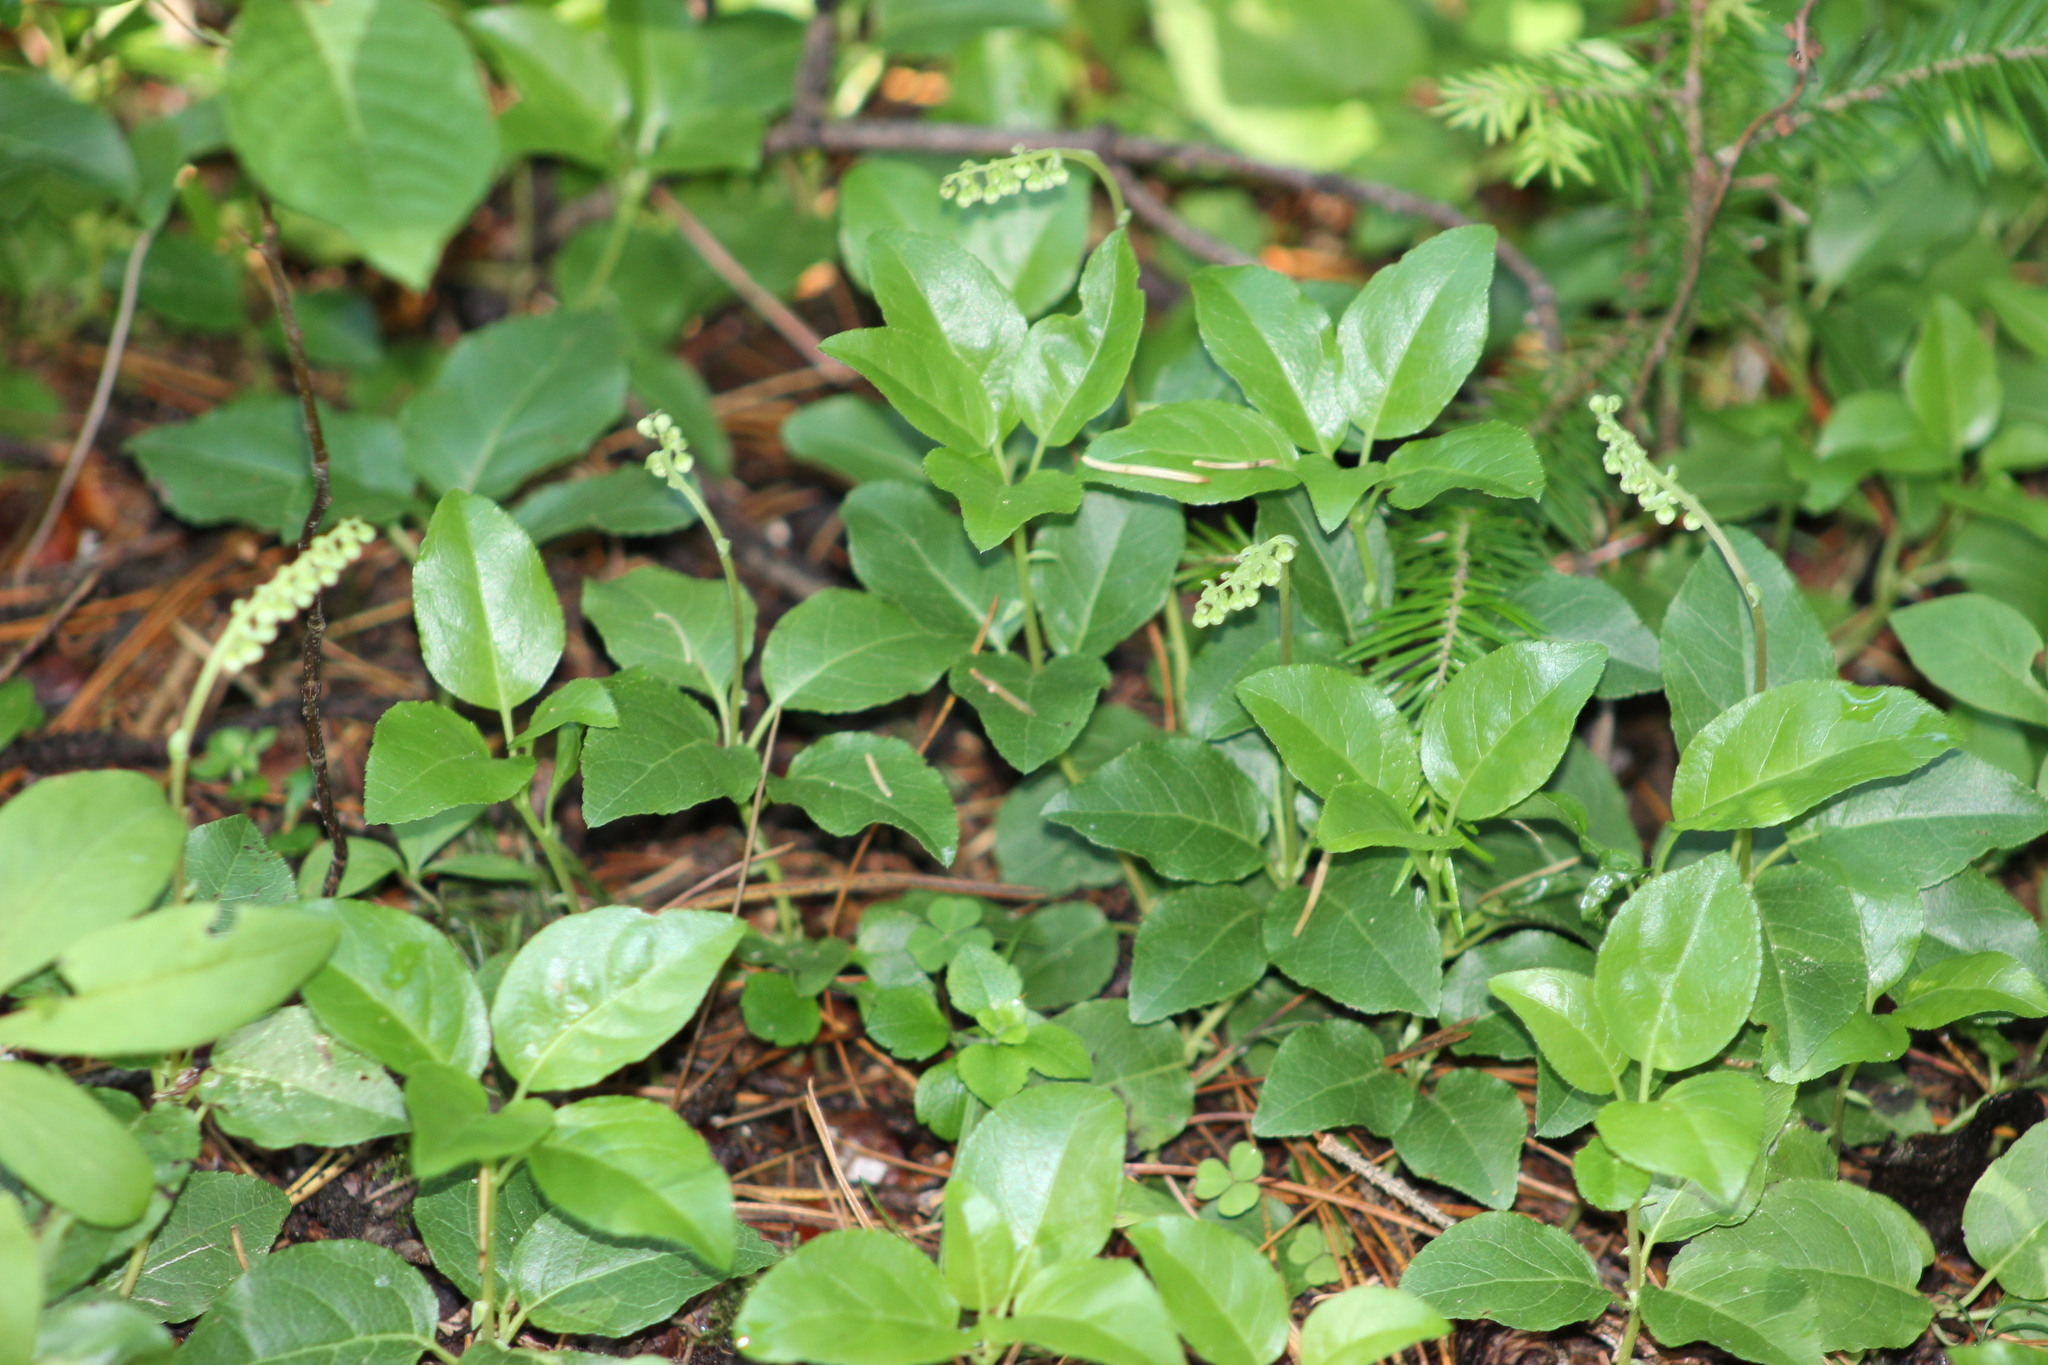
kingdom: Plantae
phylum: Tracheophyta
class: Magnoliopsida
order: Ericales
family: Ericaceae
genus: Orthilia
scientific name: Orthilia secunda
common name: One-sided orthilia
